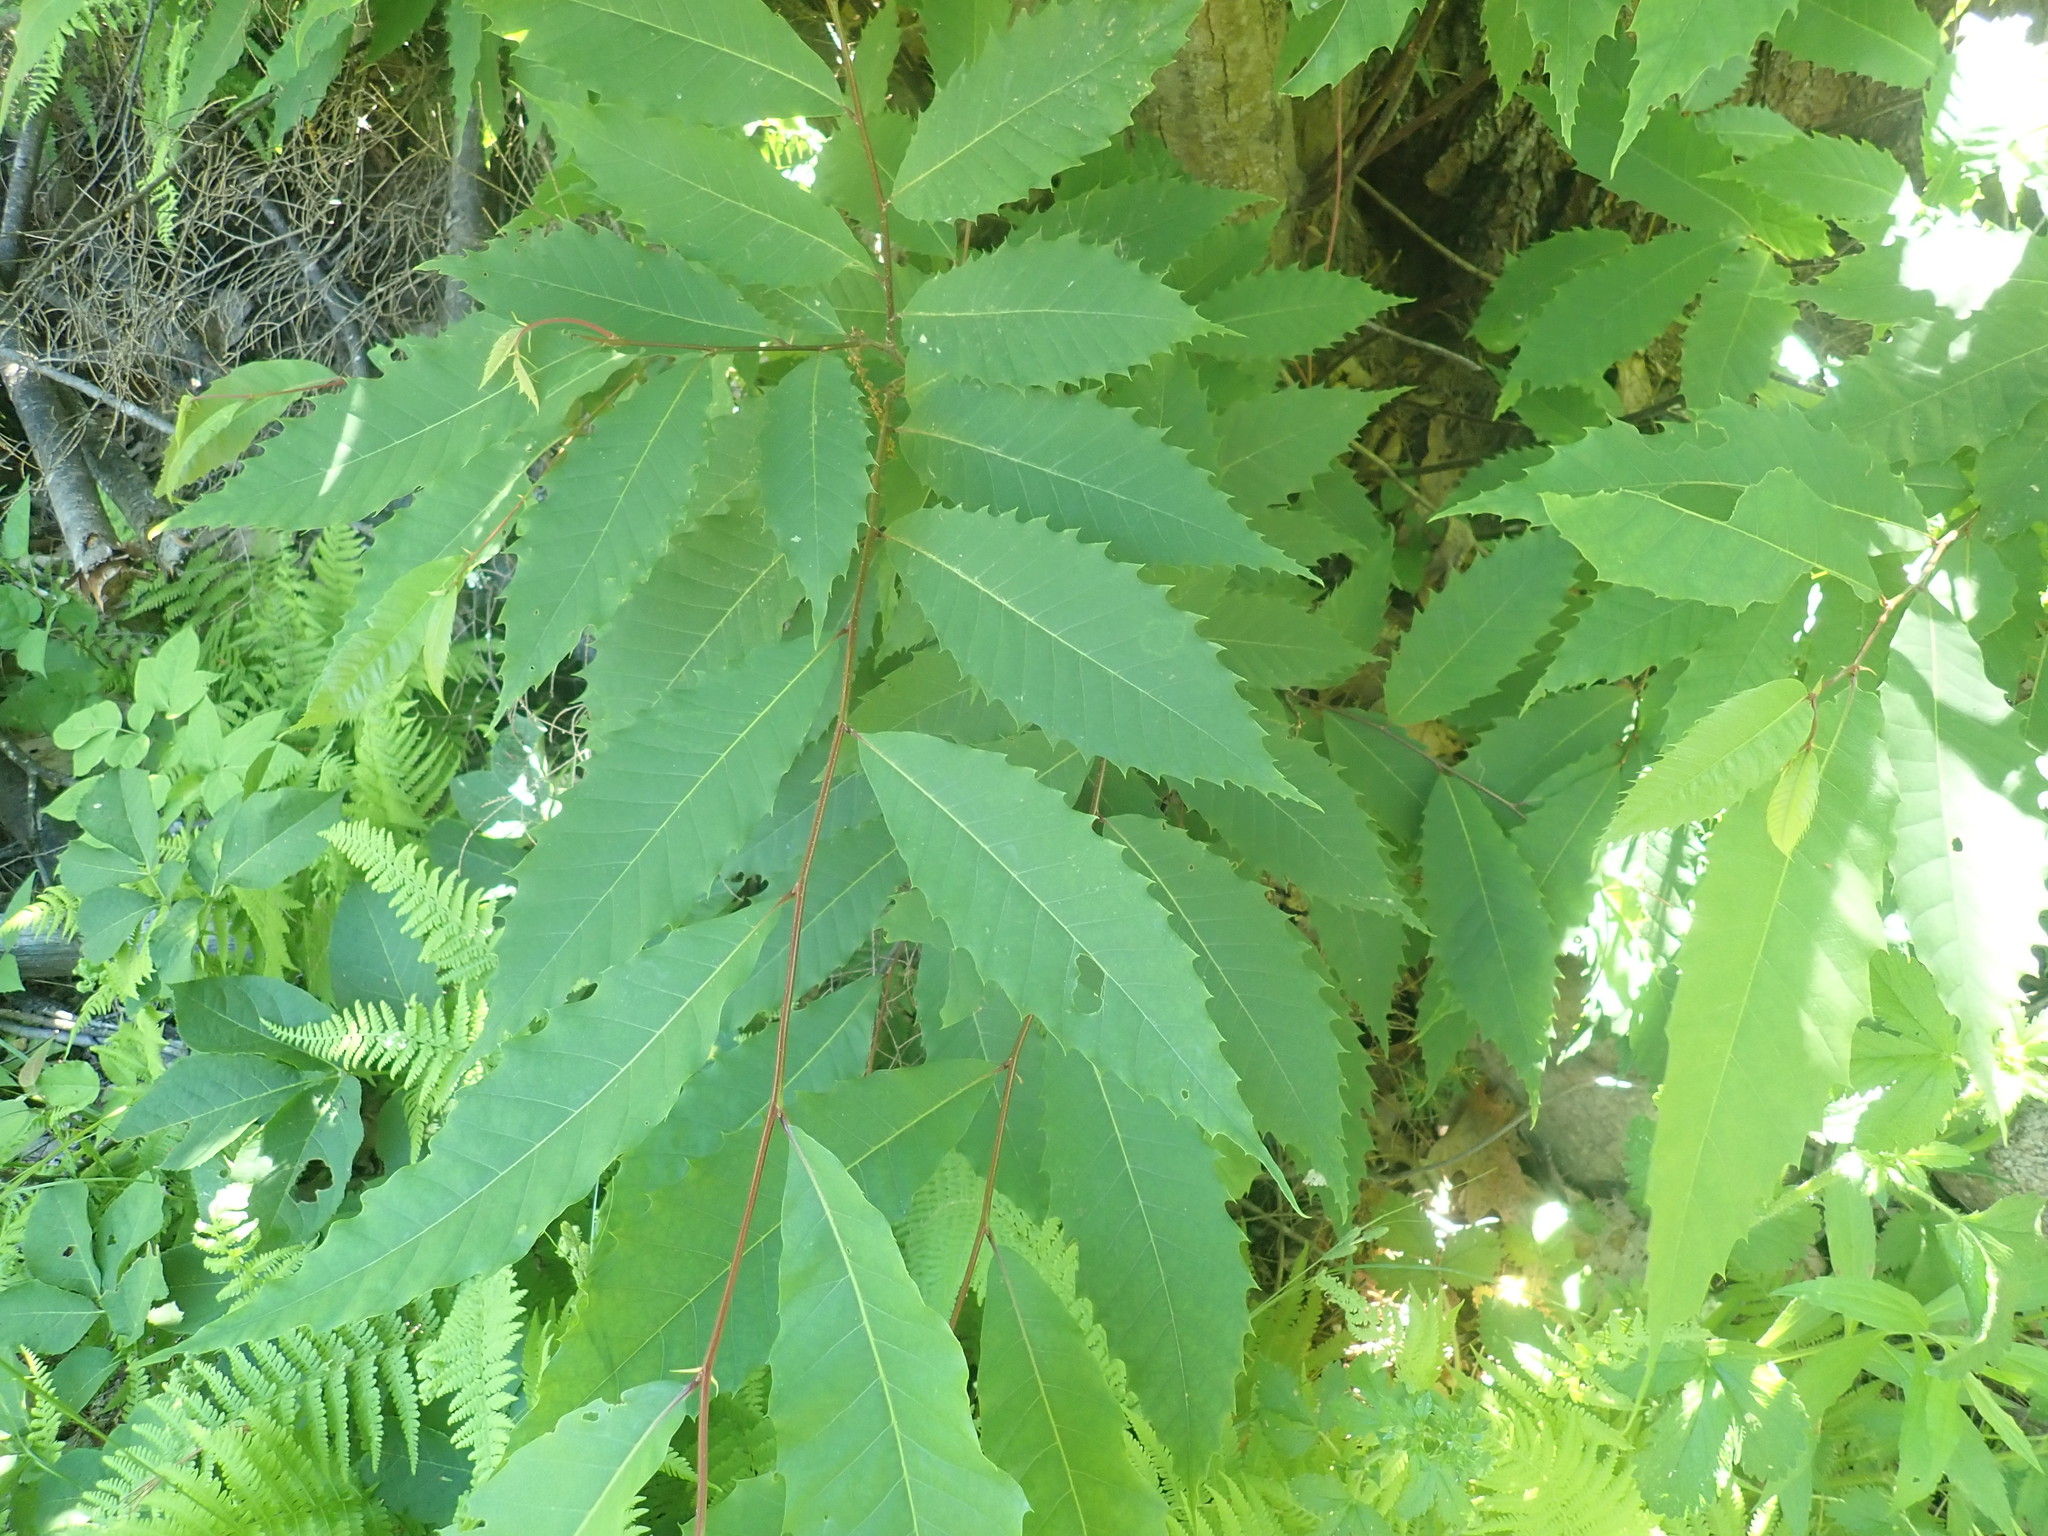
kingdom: Plantae
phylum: Tracheophyta
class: Magnoliopsida
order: Fagales
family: Fagaceae
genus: Castanea
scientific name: Castanea dentata
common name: American chestnut
